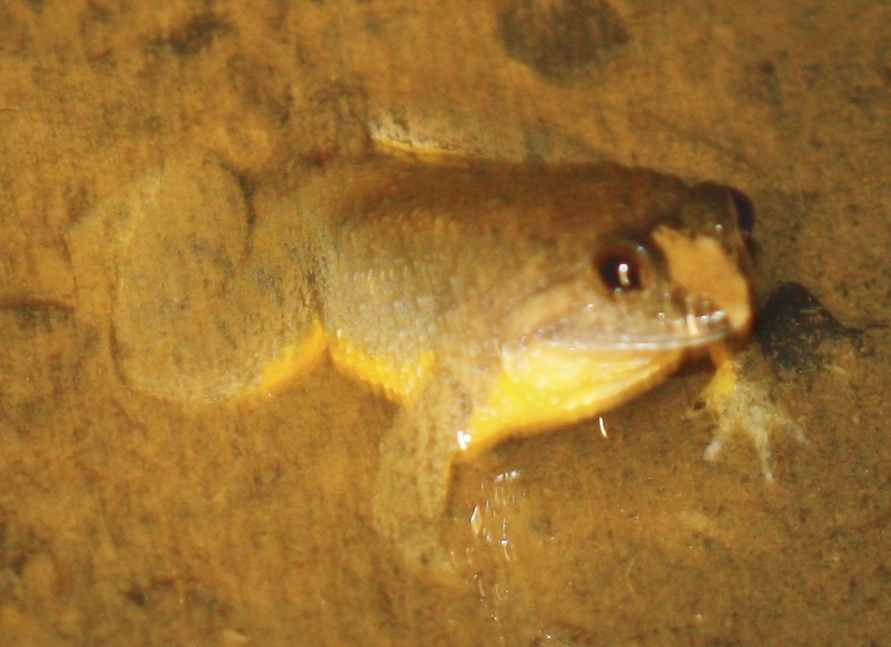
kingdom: Animalia
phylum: Chordata
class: Amphibia
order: Anura
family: Dicroglossidae
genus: Occidozyga
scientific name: Occidozyga laevis
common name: Common puddle frog/yellow bellied puddle frog
